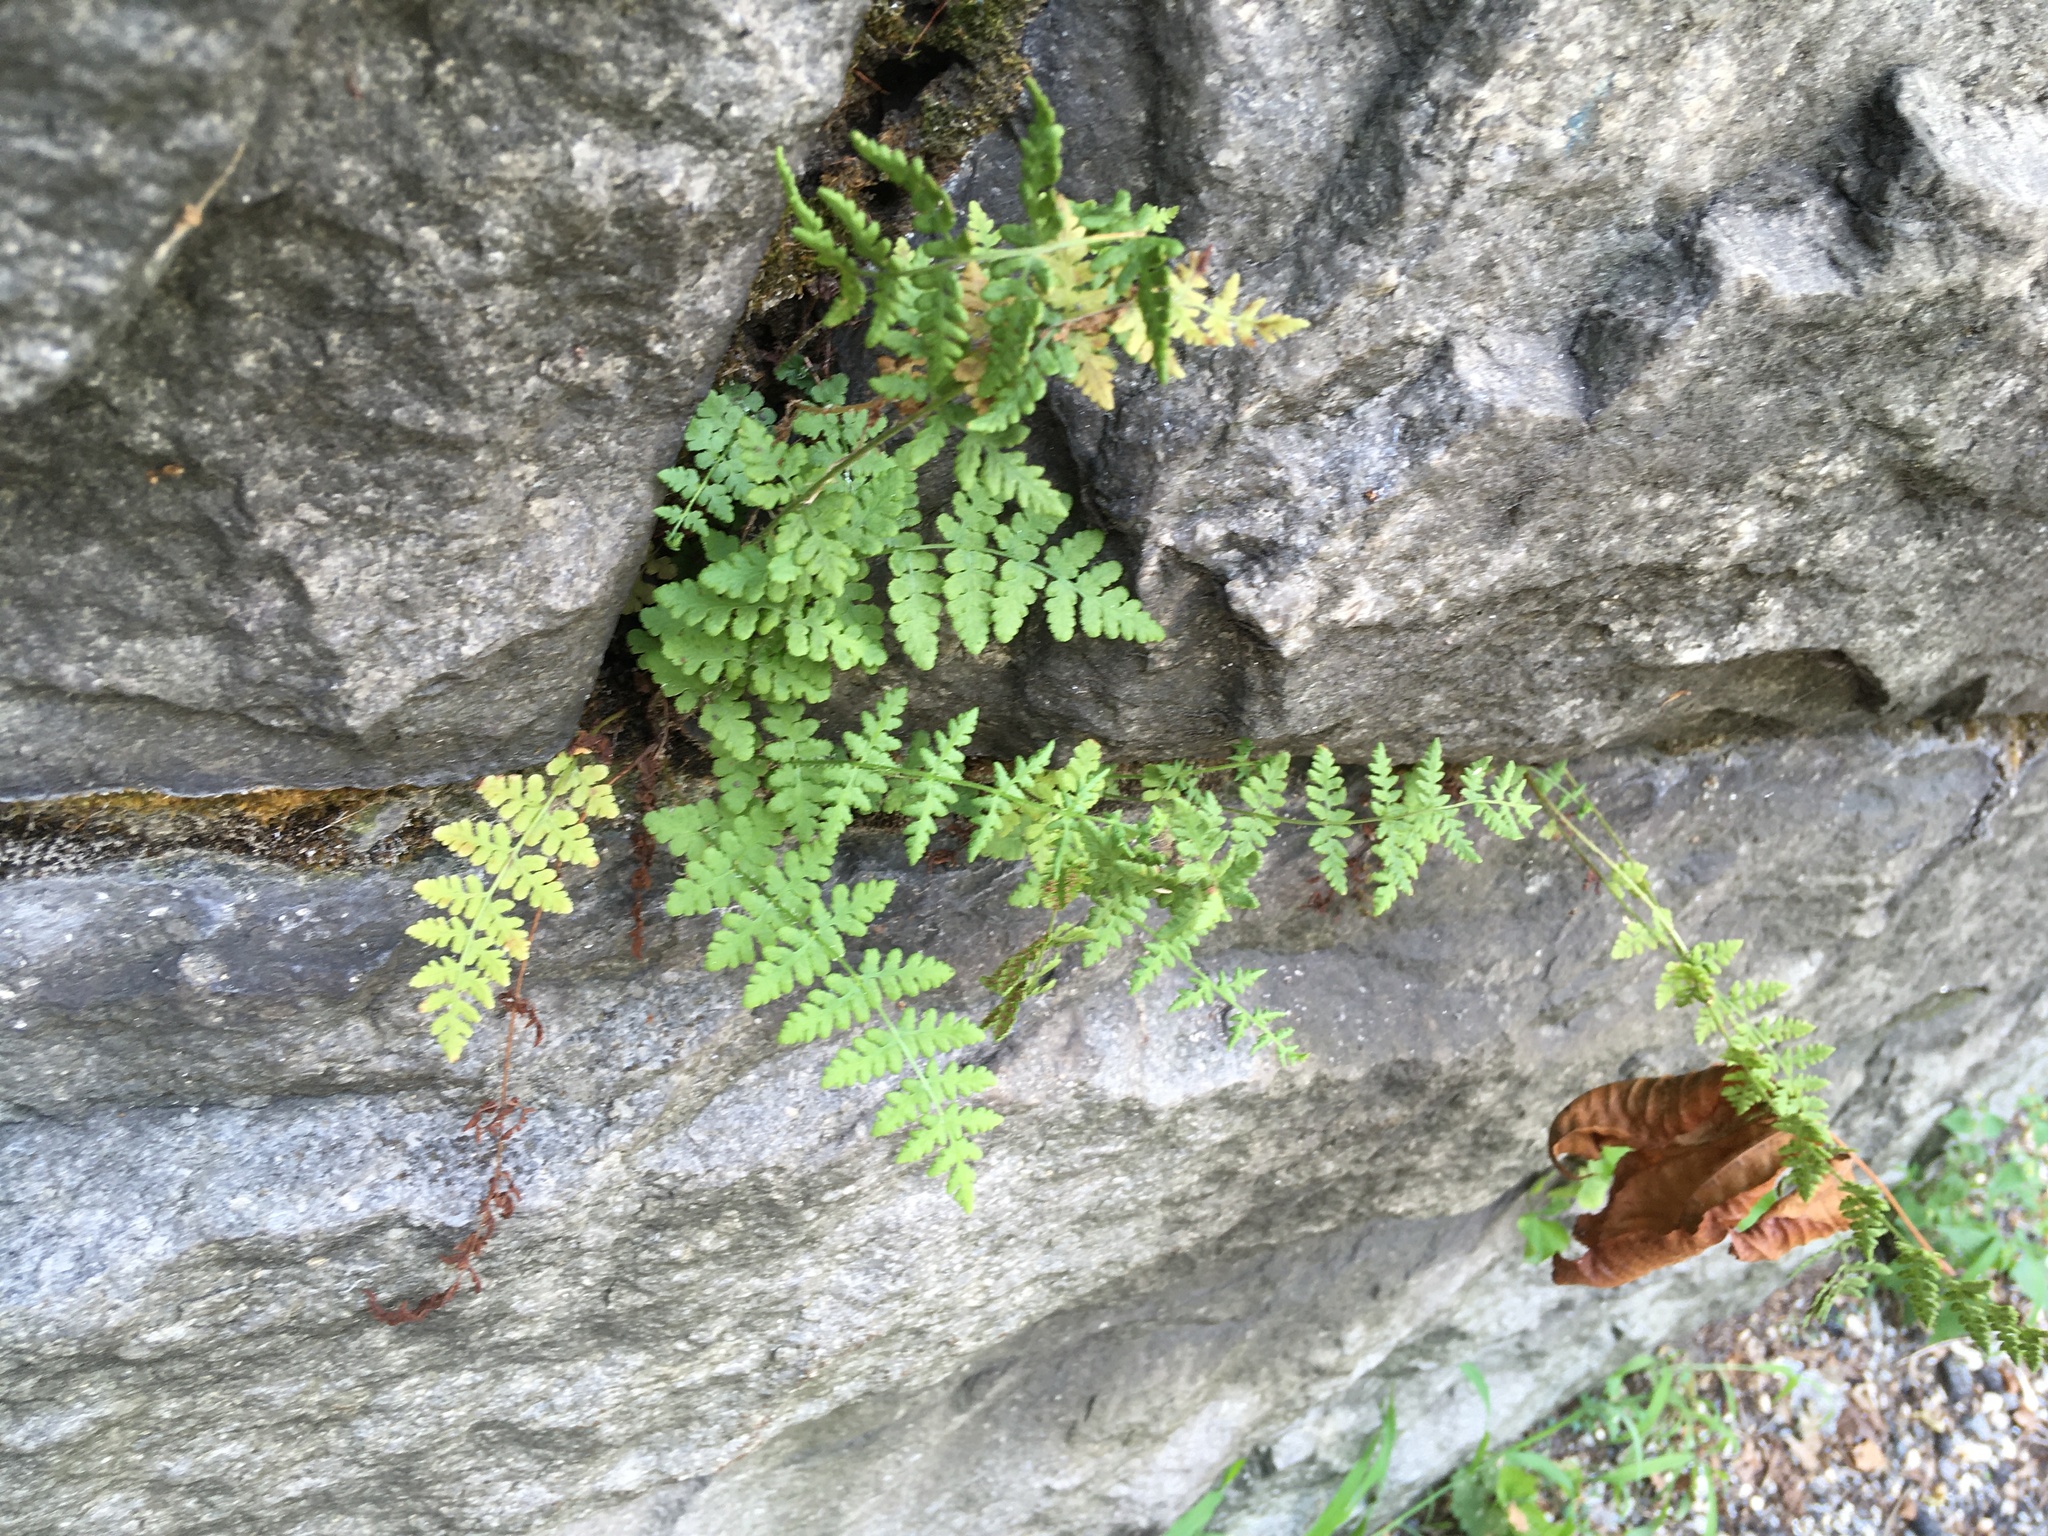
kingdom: Plantae
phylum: Tracheophyta
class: Polypodiopsida
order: Polypodiales
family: Woodsiaceae
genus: Physematium
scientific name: Physematium obtusum
